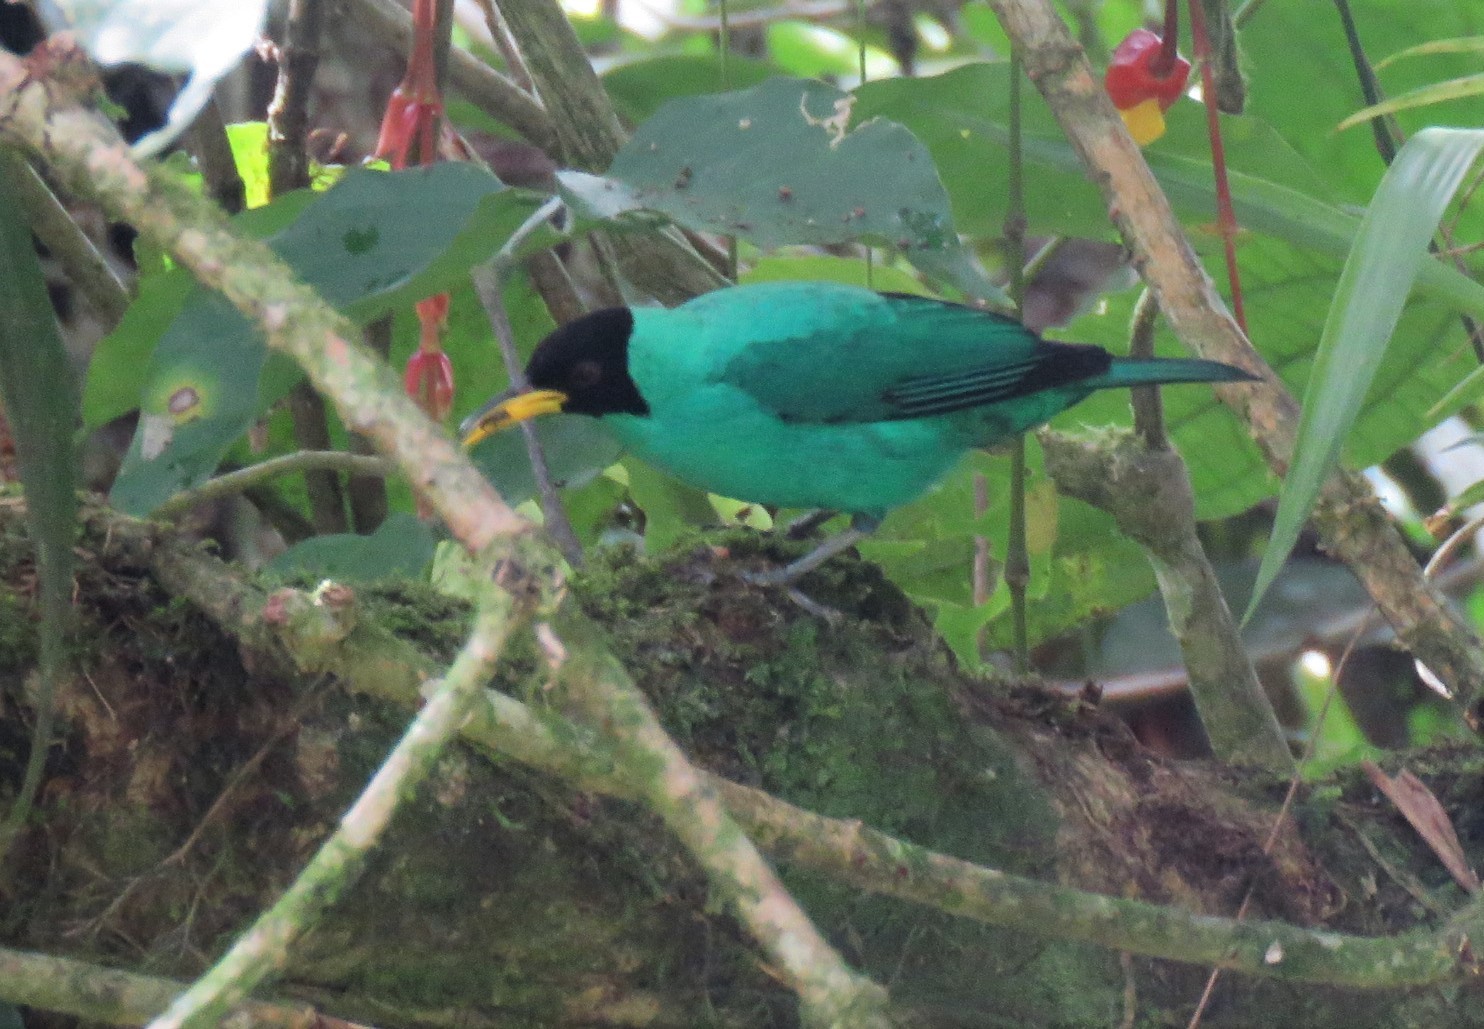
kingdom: Animalia
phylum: Chordata
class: Aves
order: Passeriformes
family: Thraupidae
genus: Chlorophanes
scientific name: Chlorophanes spiza
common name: Green honeycreeper
